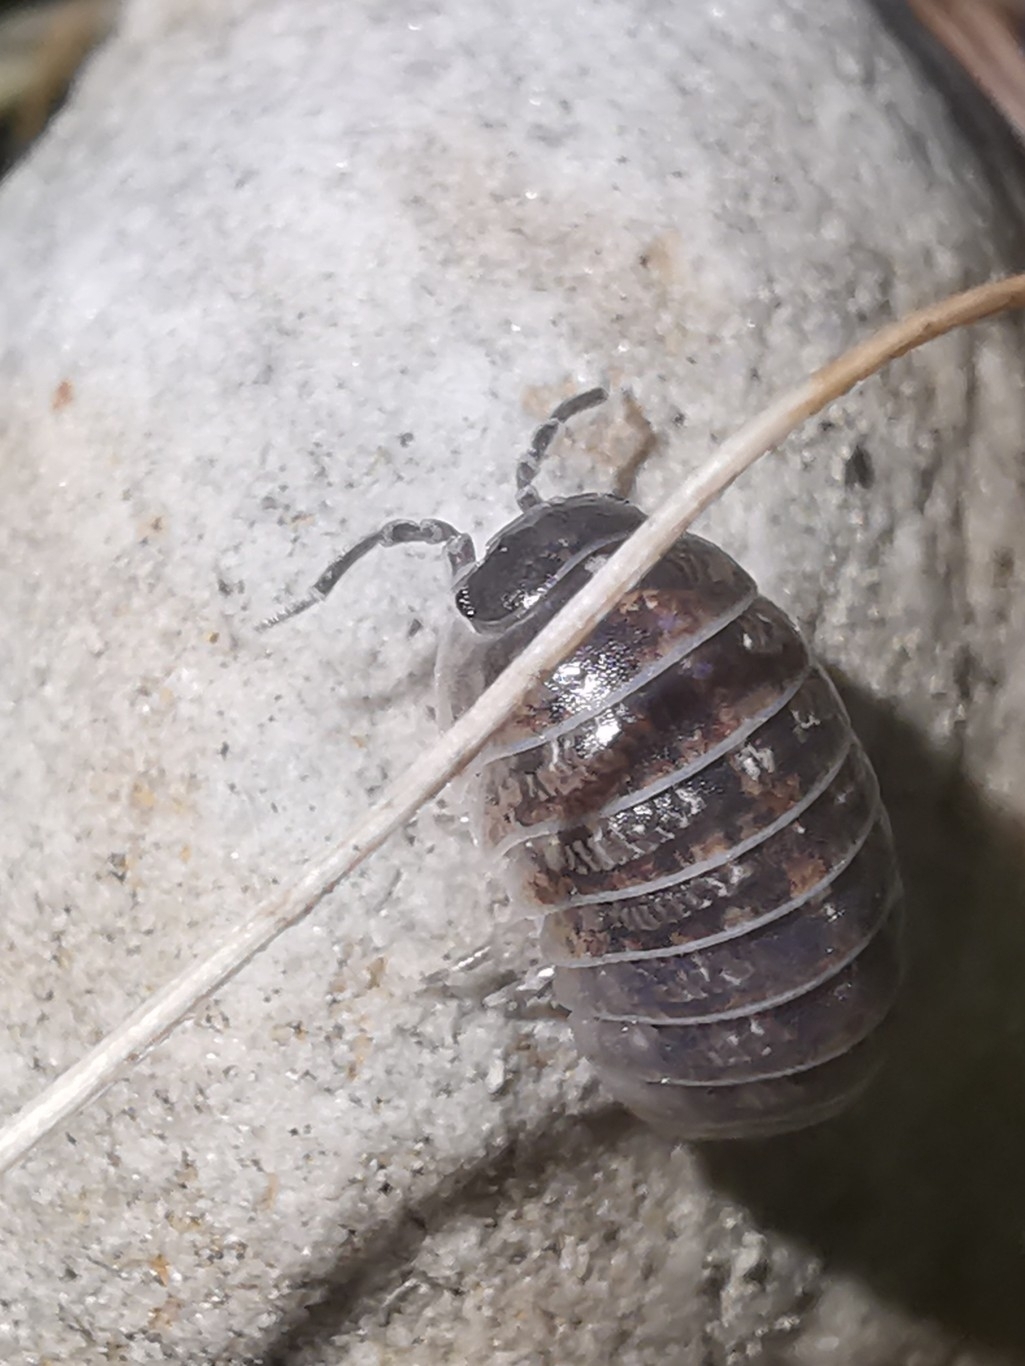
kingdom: Animalia
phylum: Arthropoda
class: Malacostraca
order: Isopoda
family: Armadillidiidae
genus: Armadillidium
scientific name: Armadillidium vulgare
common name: Common pill woodlouse
